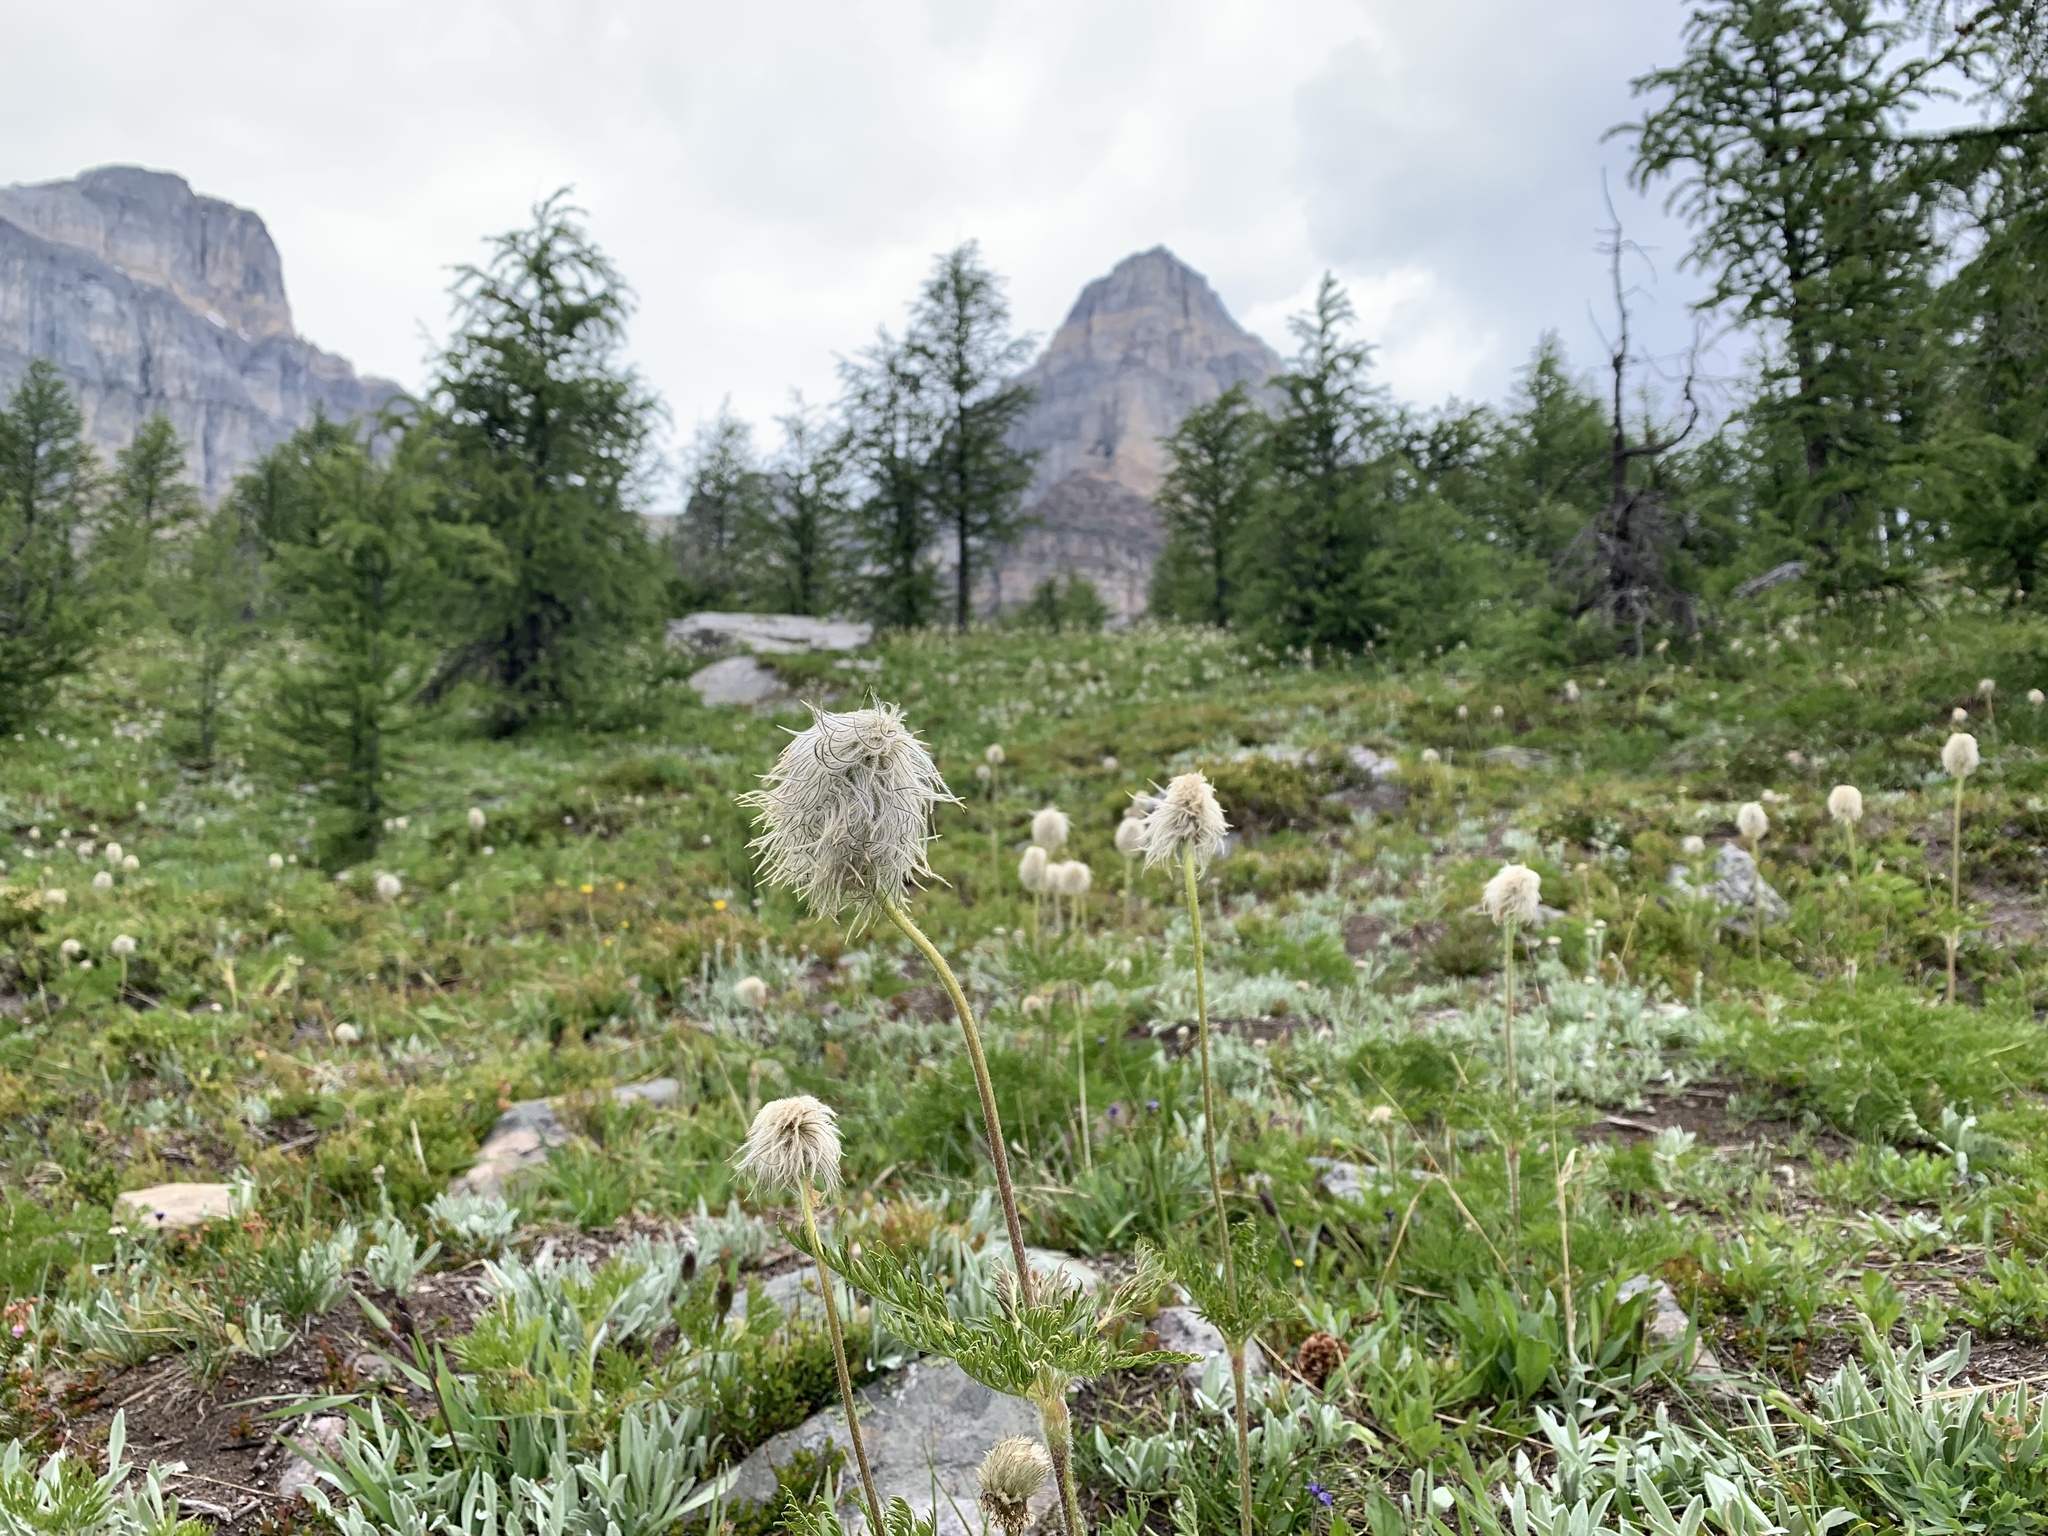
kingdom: Plantae
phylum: Tracheophyta
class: Magnoliopsida
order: Ranunculales
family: Ranunculaceae
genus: Pulsatilla
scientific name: Pulsatilla occidentalis
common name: Mountain pasqueflower
